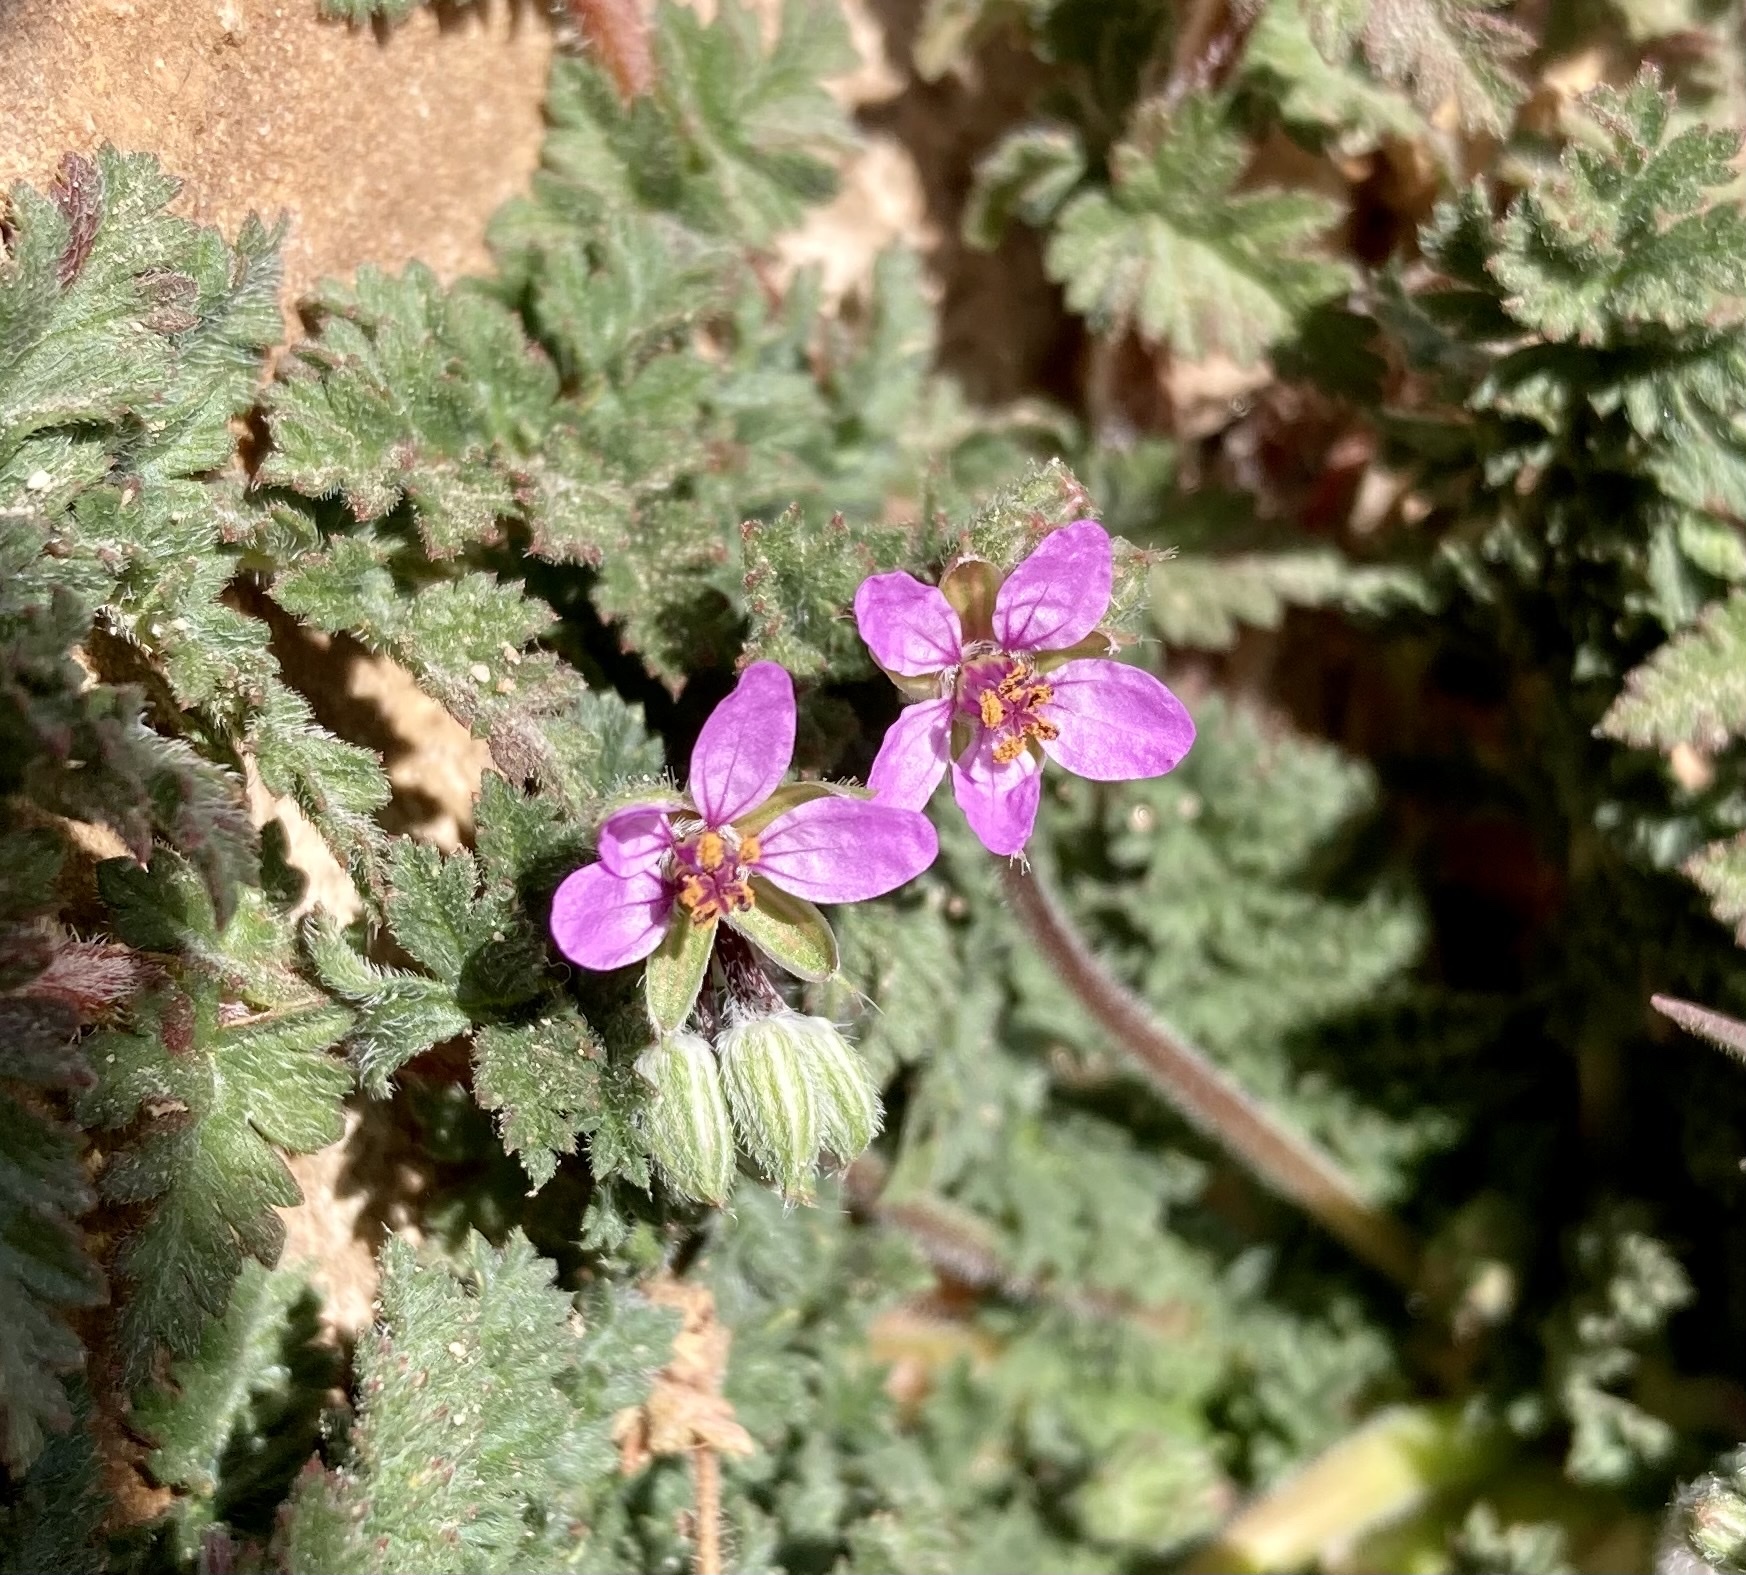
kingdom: Plantae
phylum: Tracheophyta
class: Magnoliopsida
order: Geraniales
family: Geraniaceae
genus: Erodium
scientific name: Erodium cicutarium
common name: Common stork's-bill
